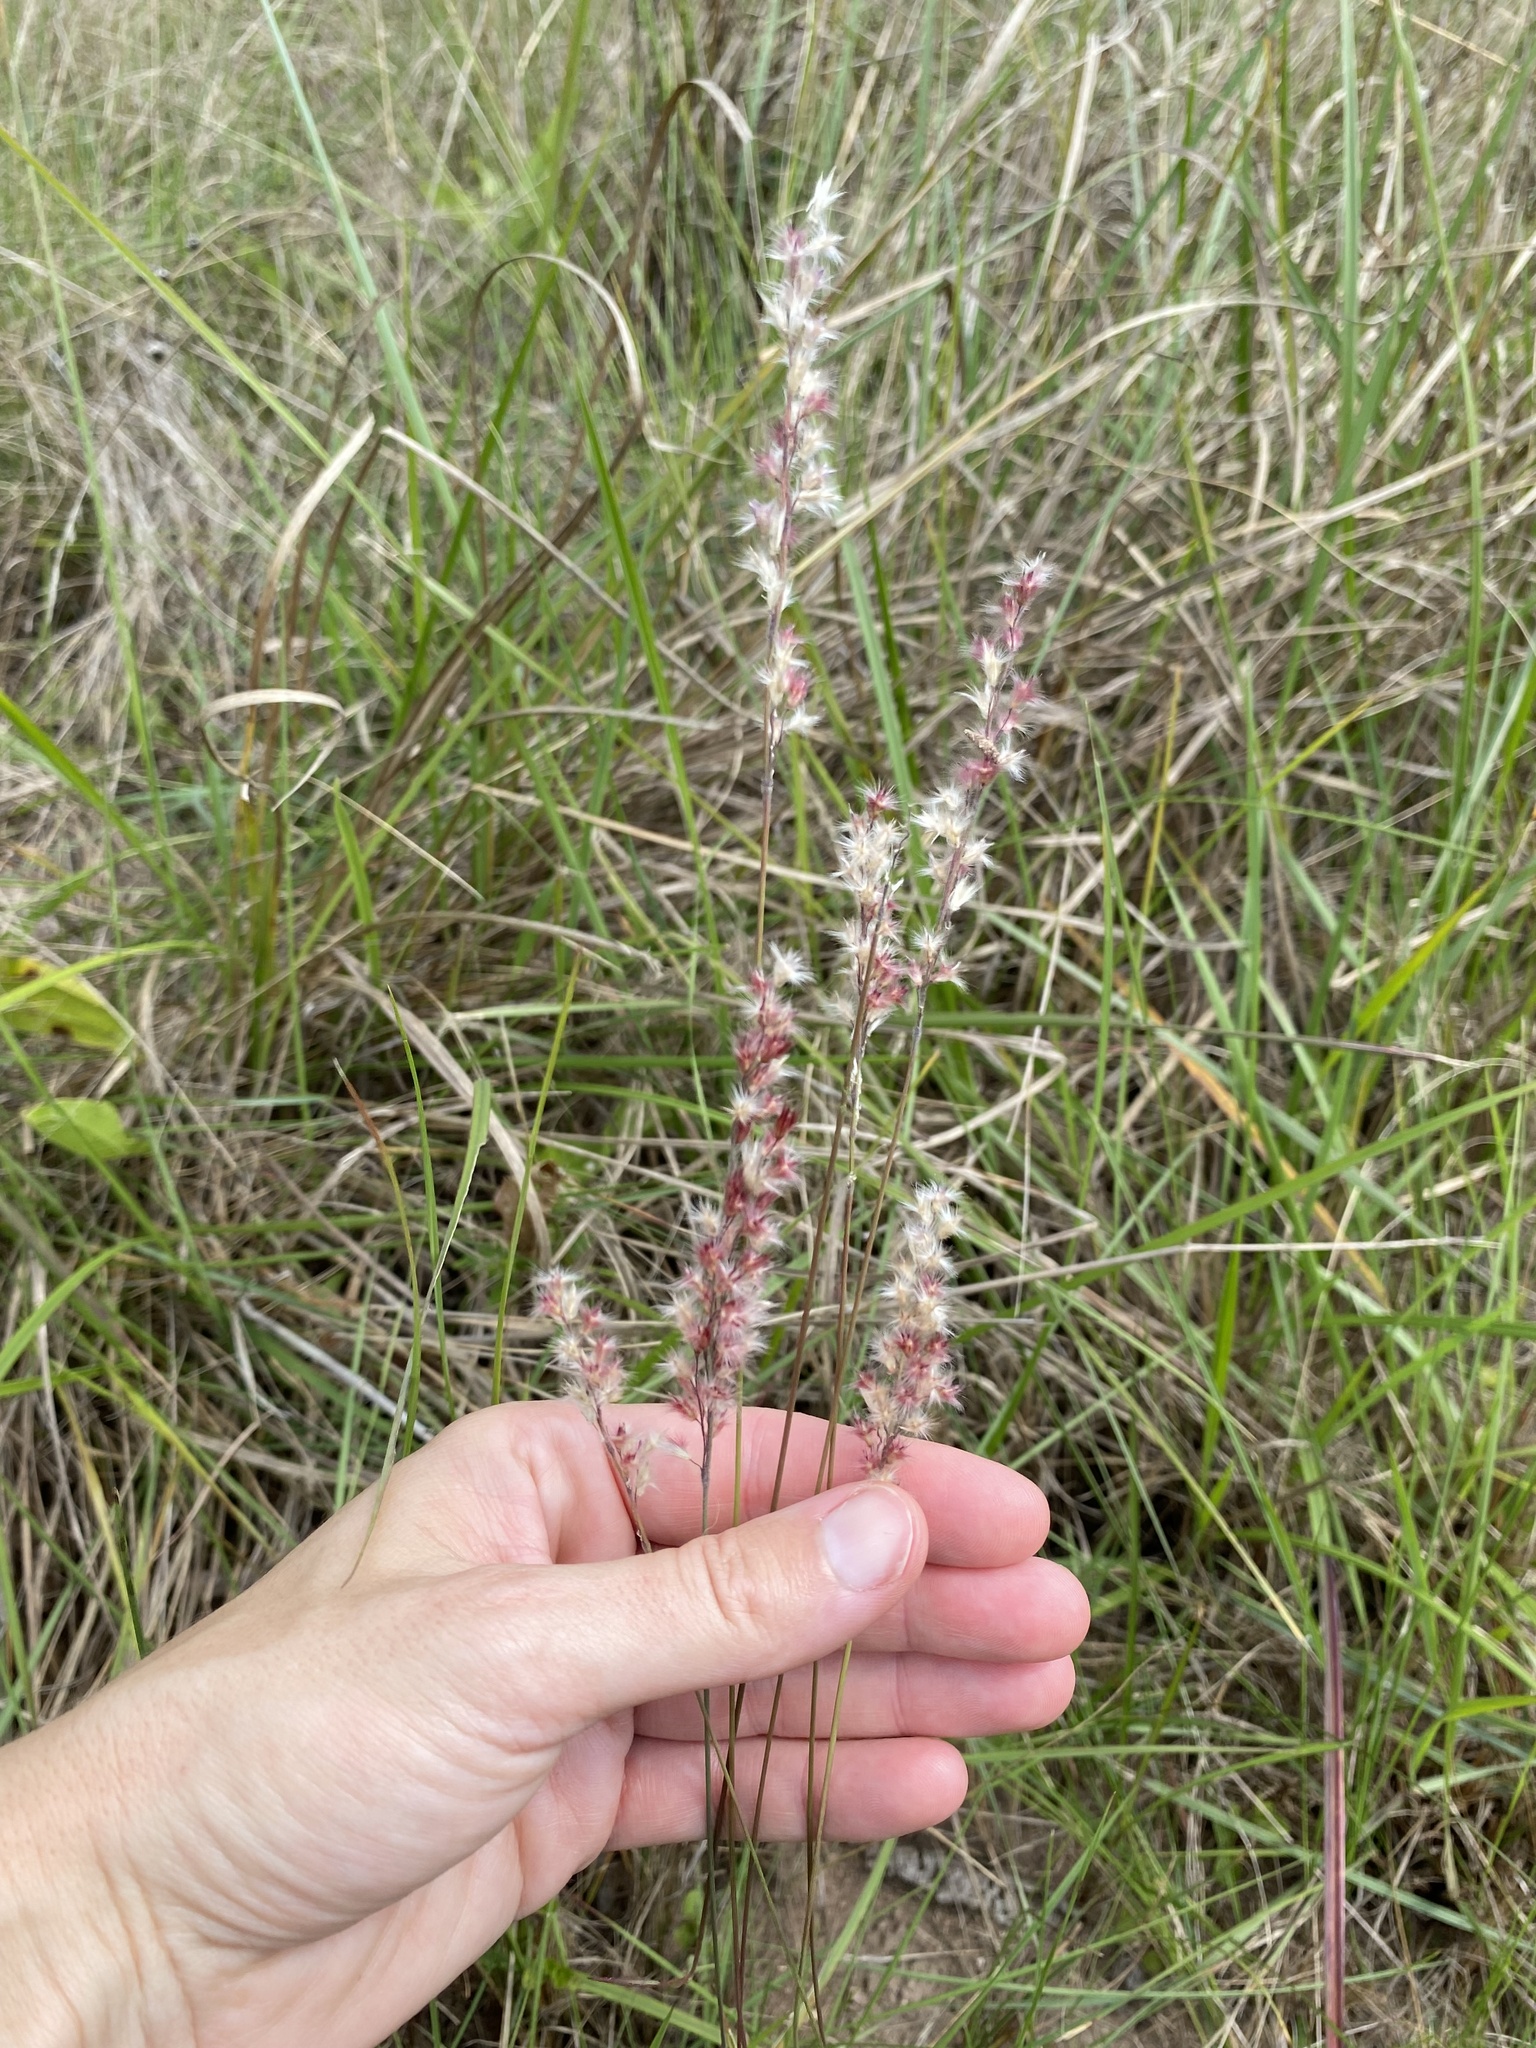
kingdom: Plantae
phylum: Tracheophyta
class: Liliopsida
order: Poales
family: Poaceae
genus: Melinis
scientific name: Melinis nerviglumis
